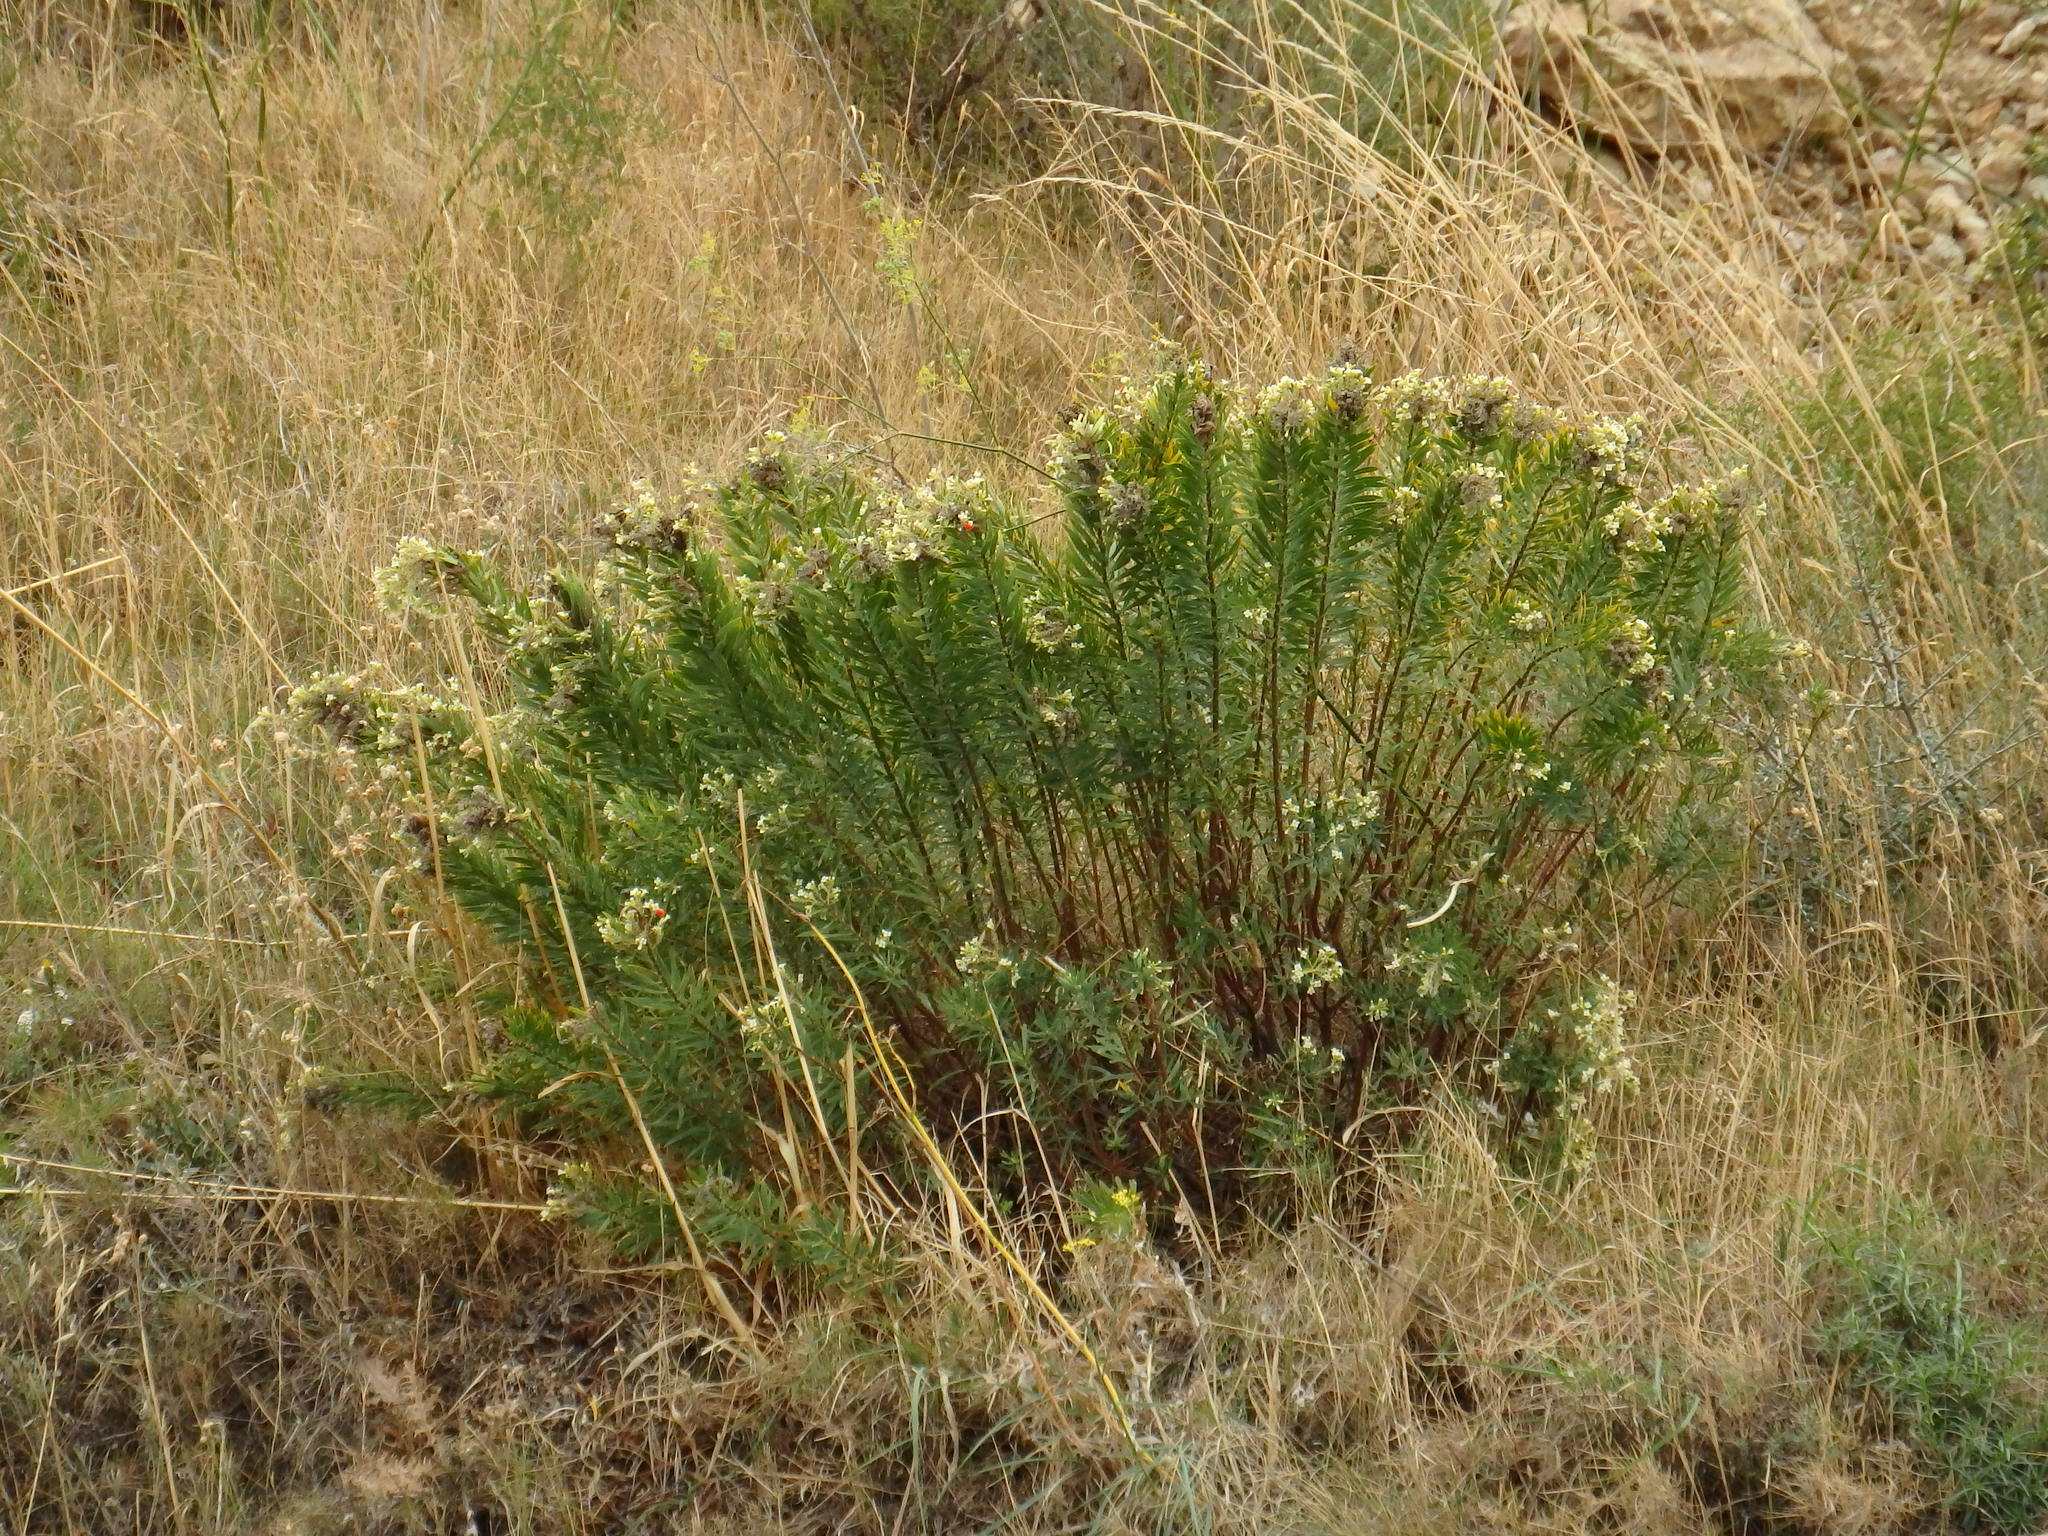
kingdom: Plantae
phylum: Tracheophyta
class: Magnoliopsida
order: Malvales
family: Thymelaeaceae
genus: Daphne
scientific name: Daphne gnidium
